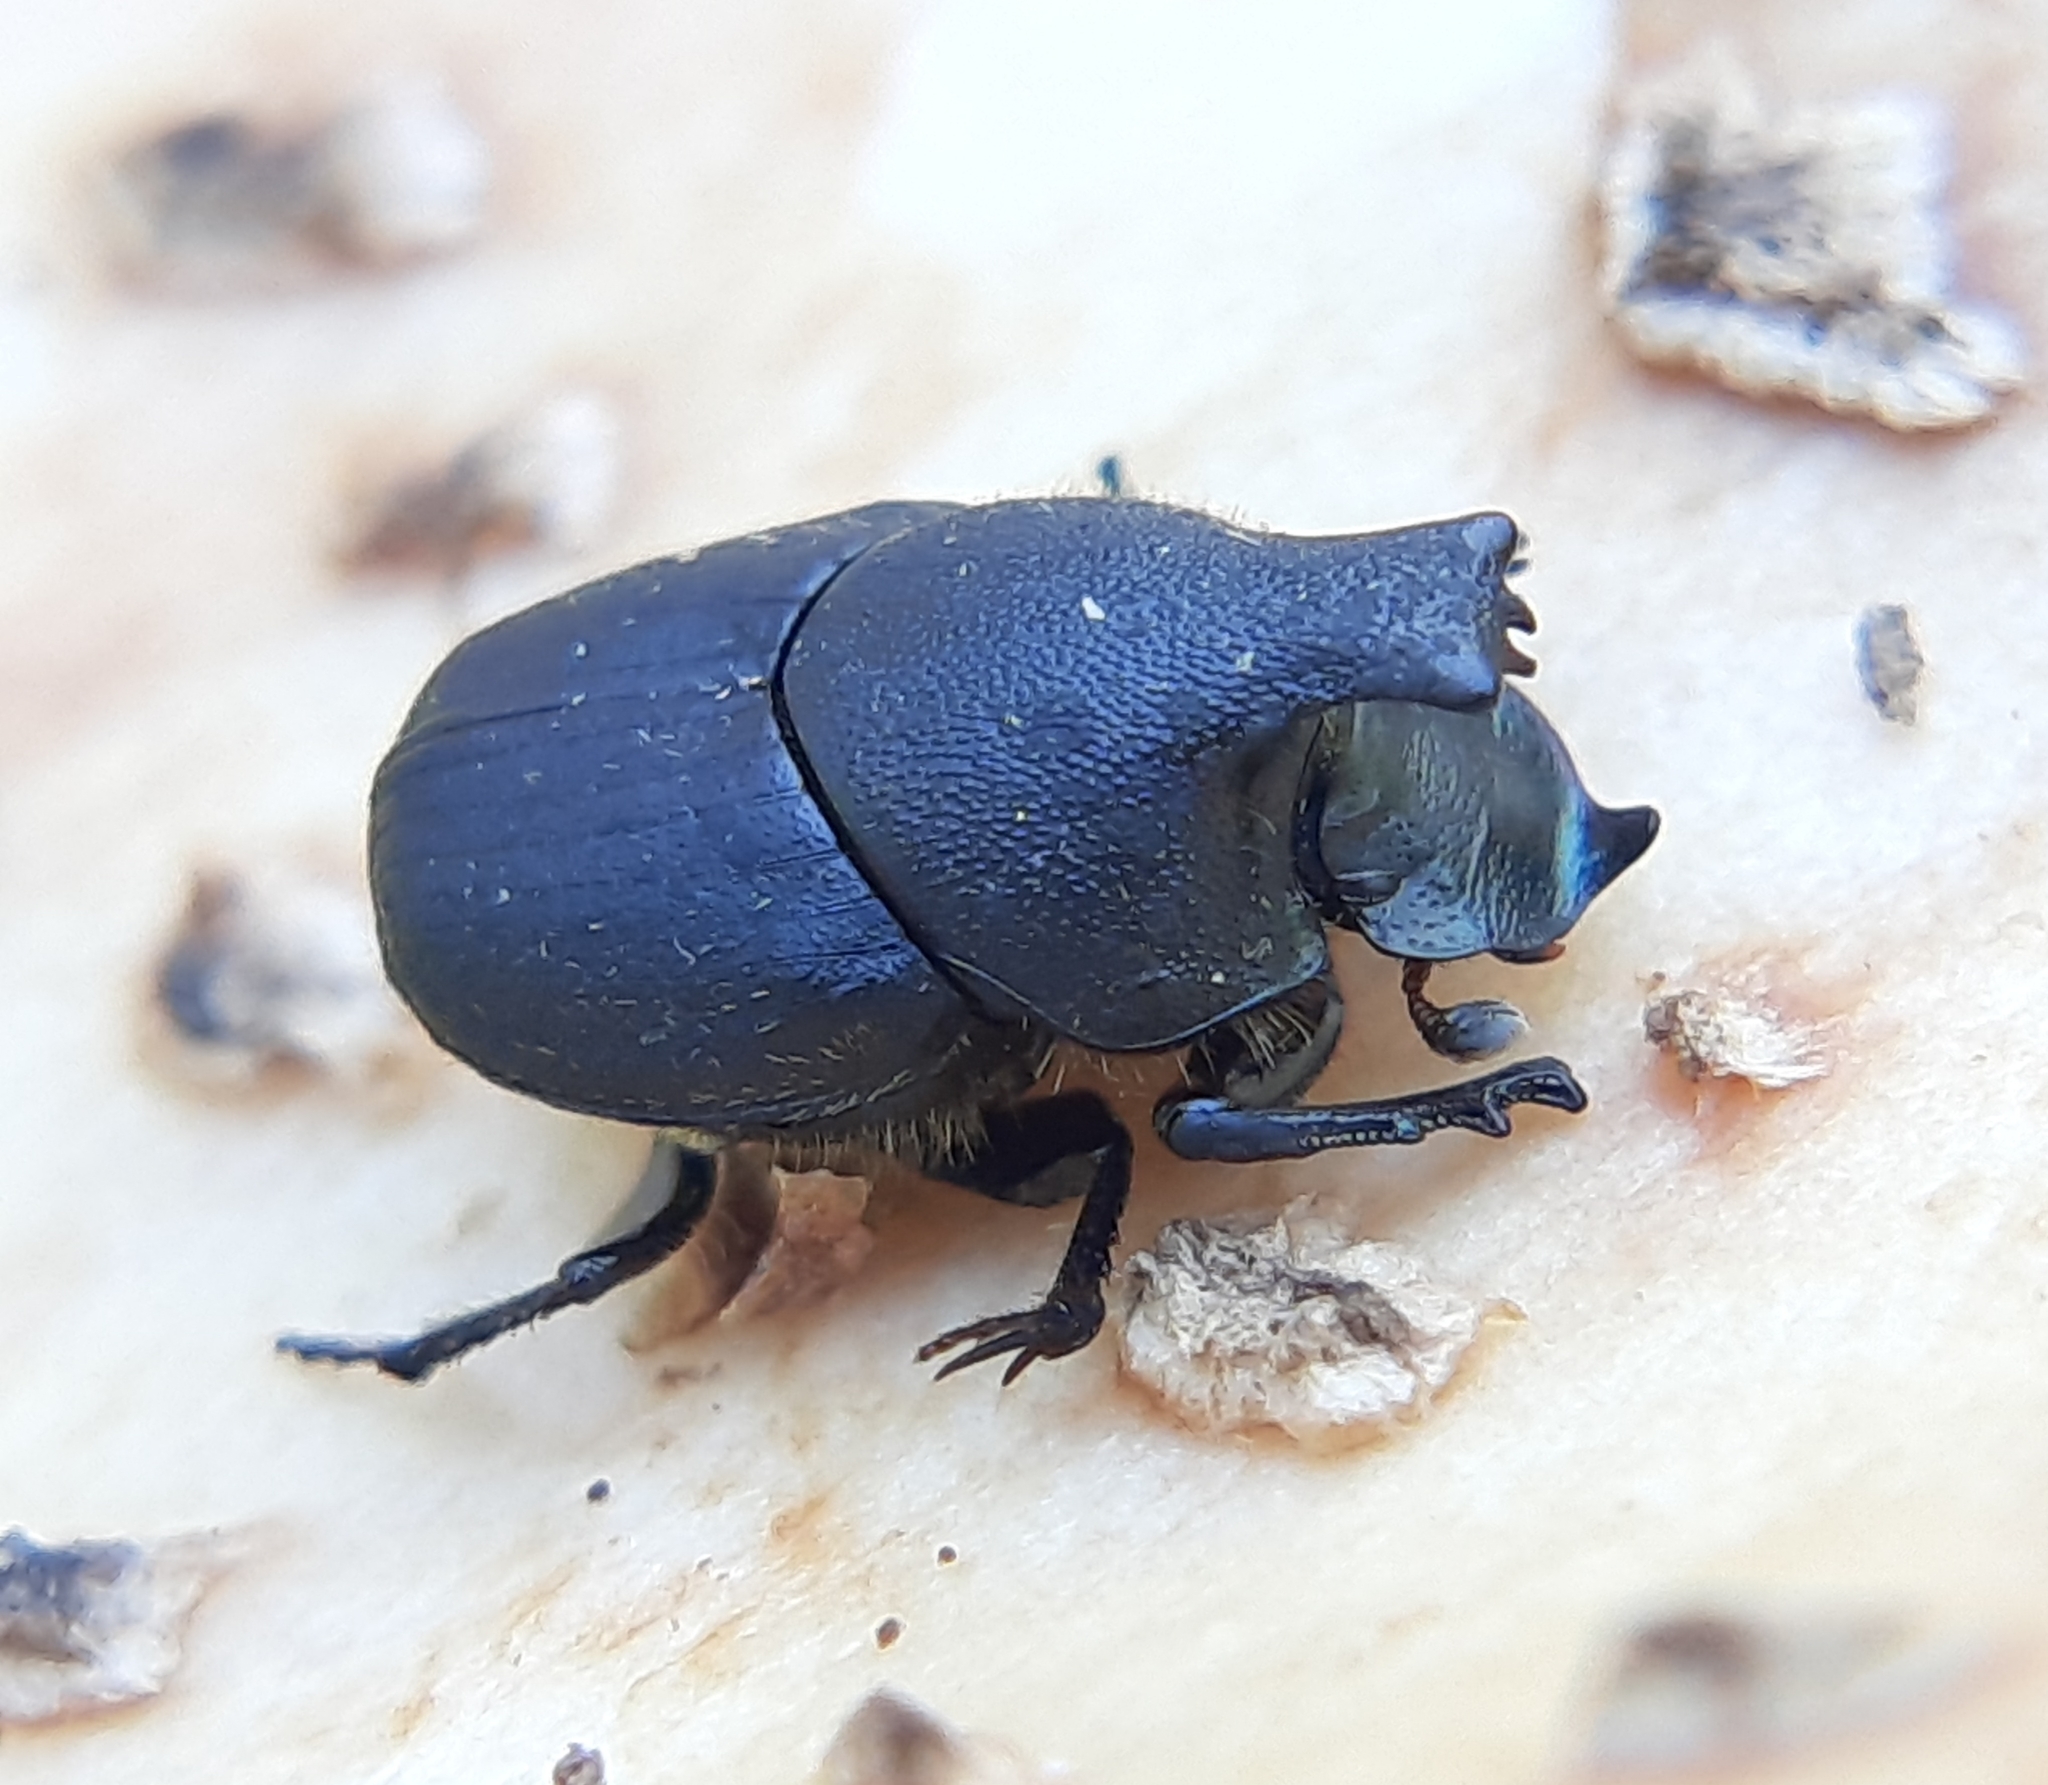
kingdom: Animalia
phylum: Arthropoda
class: Insecta
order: Coleoptera
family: Scarabaeidae
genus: Onthophagus
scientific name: Onthophagus hecate
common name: Scooped scarab
